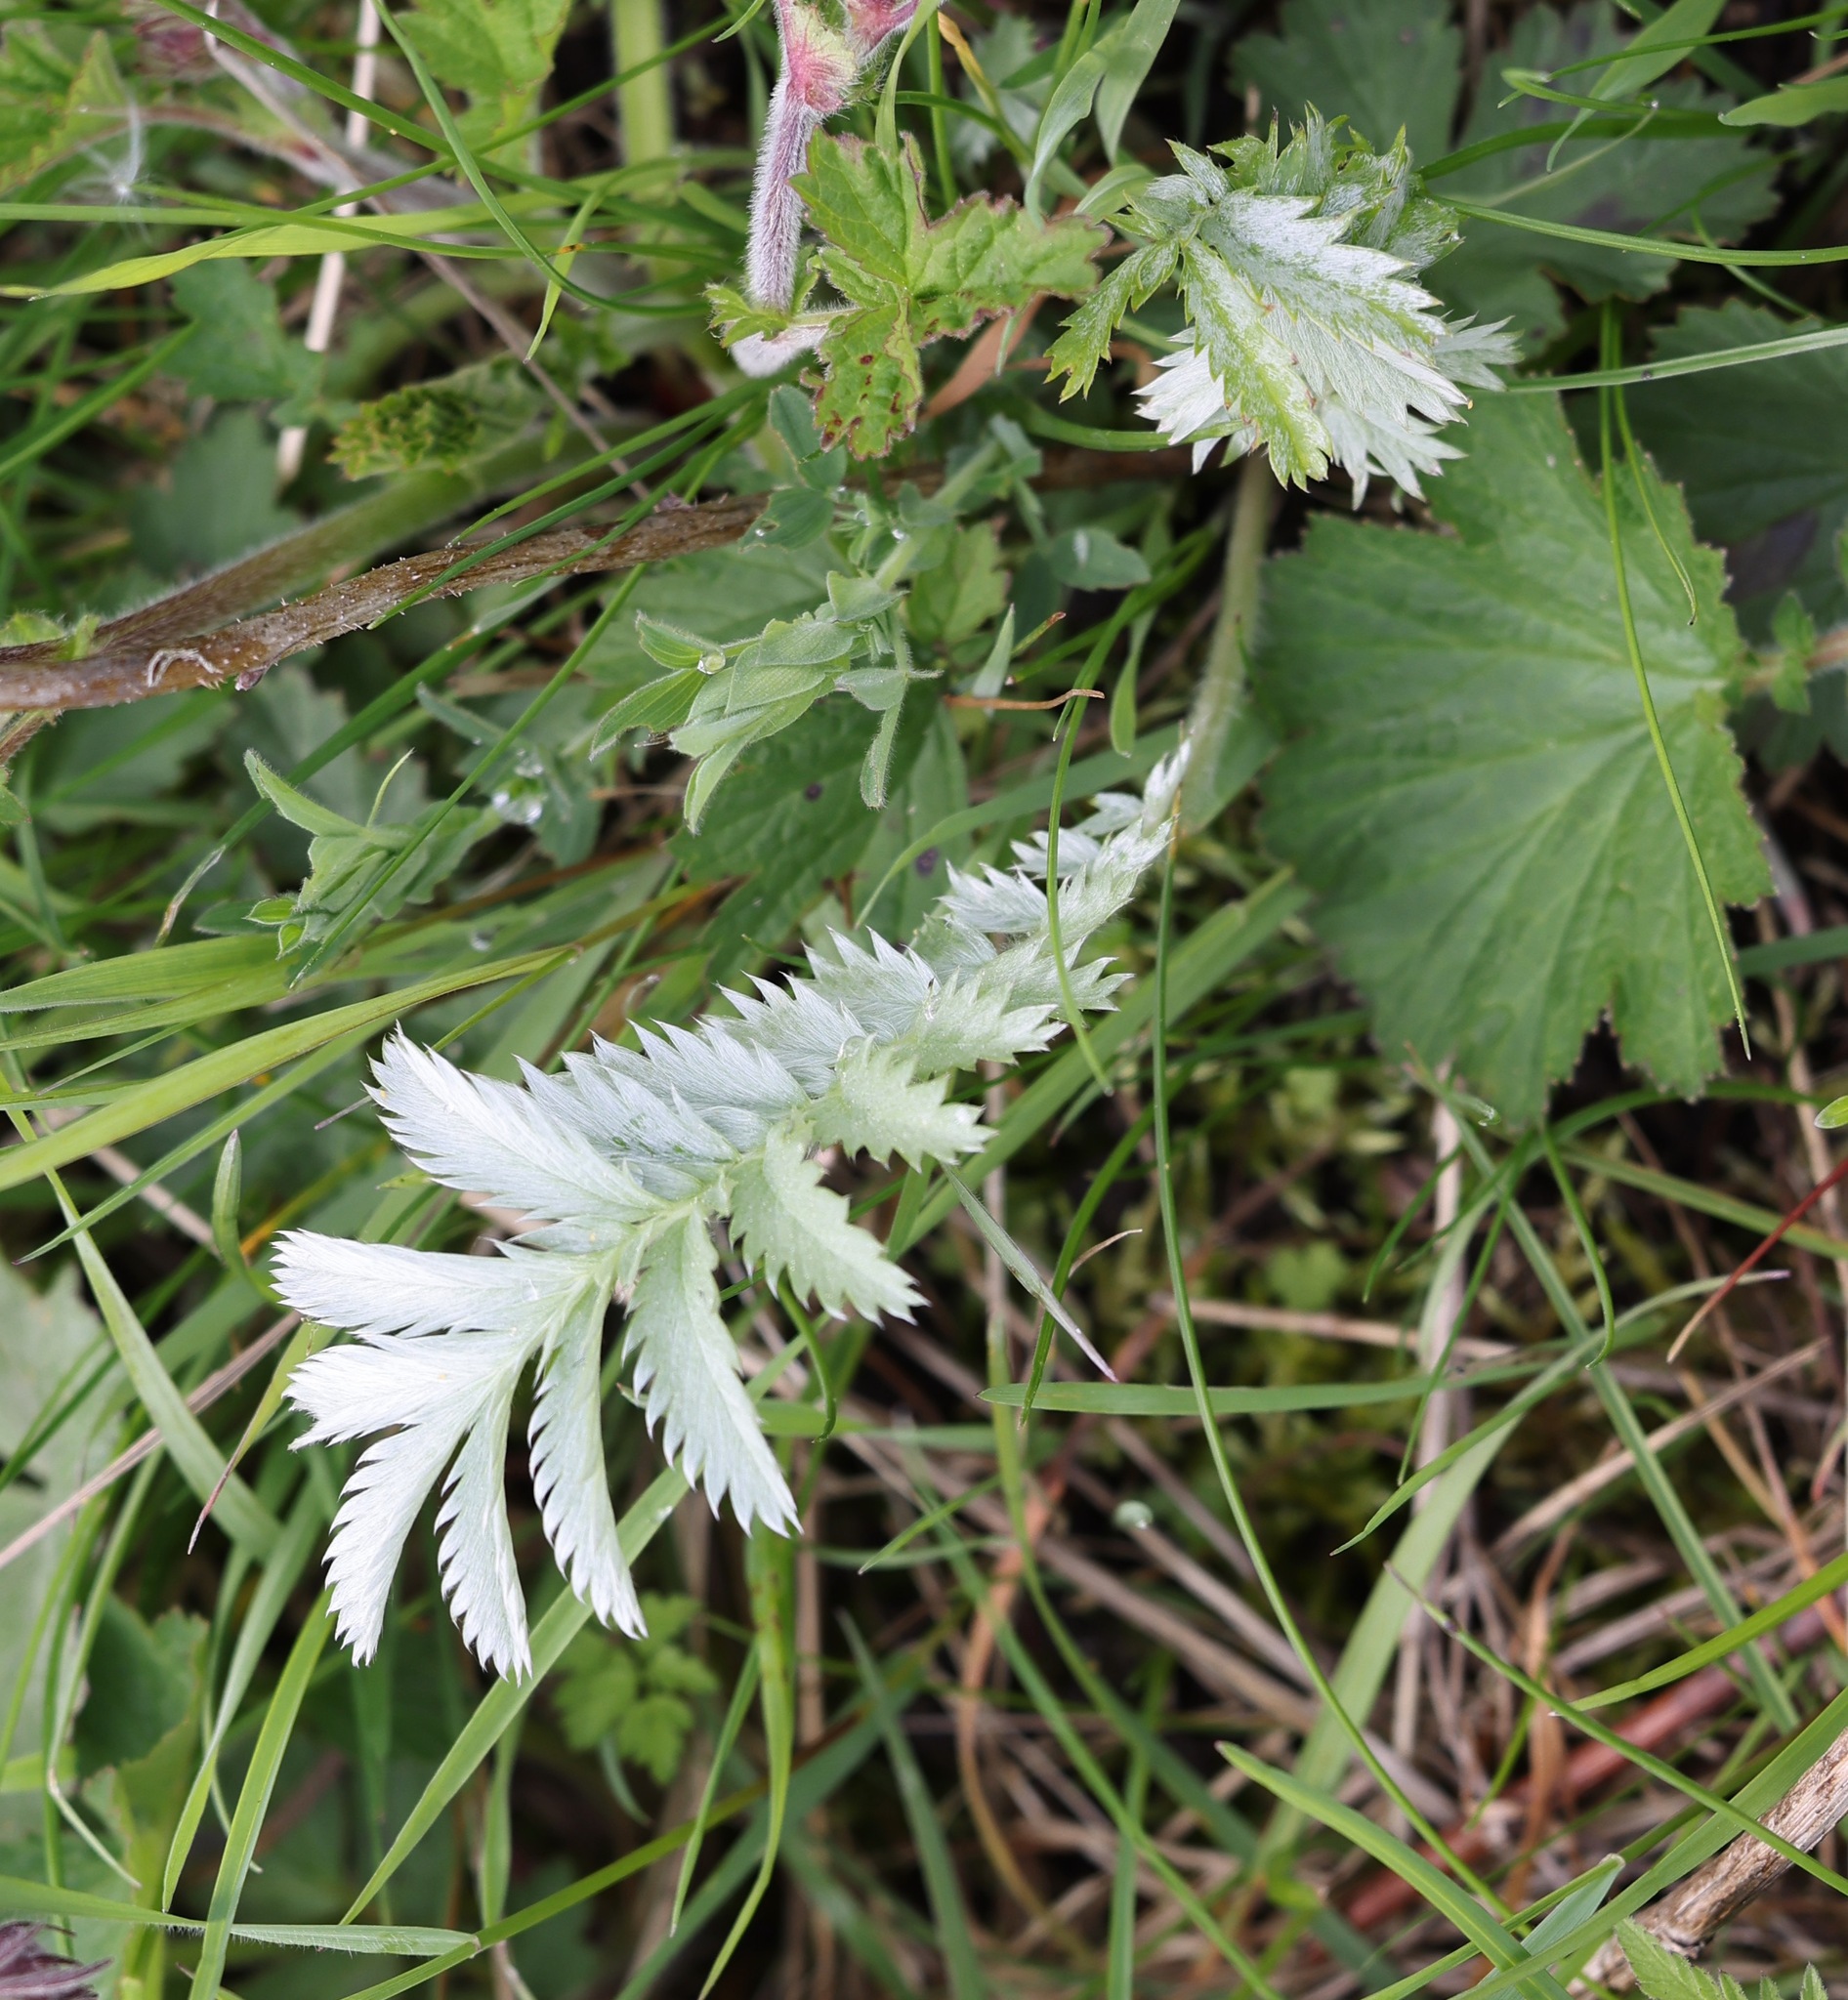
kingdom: Plantae
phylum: Tracheophyta
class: Magnoliopsida
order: Rosales
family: Rosaceae
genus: Argentina
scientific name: Argentina anserina
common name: Common silverweed
